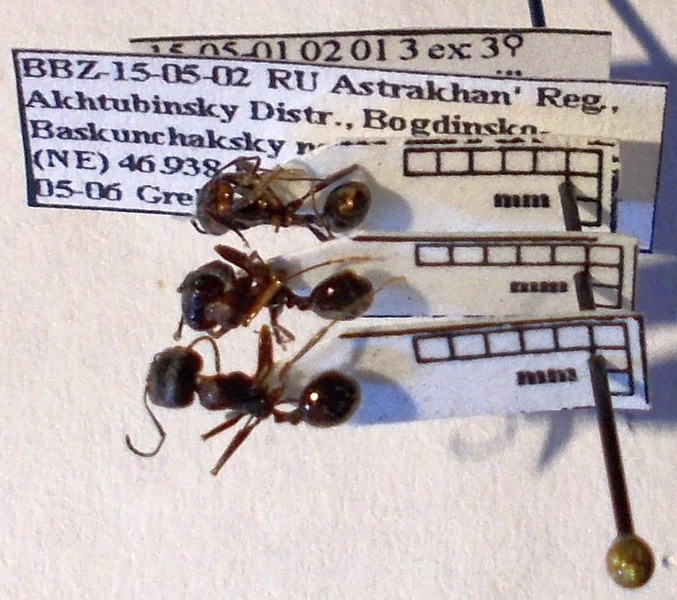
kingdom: Animalia
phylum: Arthropoda
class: Insecta
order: Hymenoptera
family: Formicidae
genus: Messor
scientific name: Messor structor
